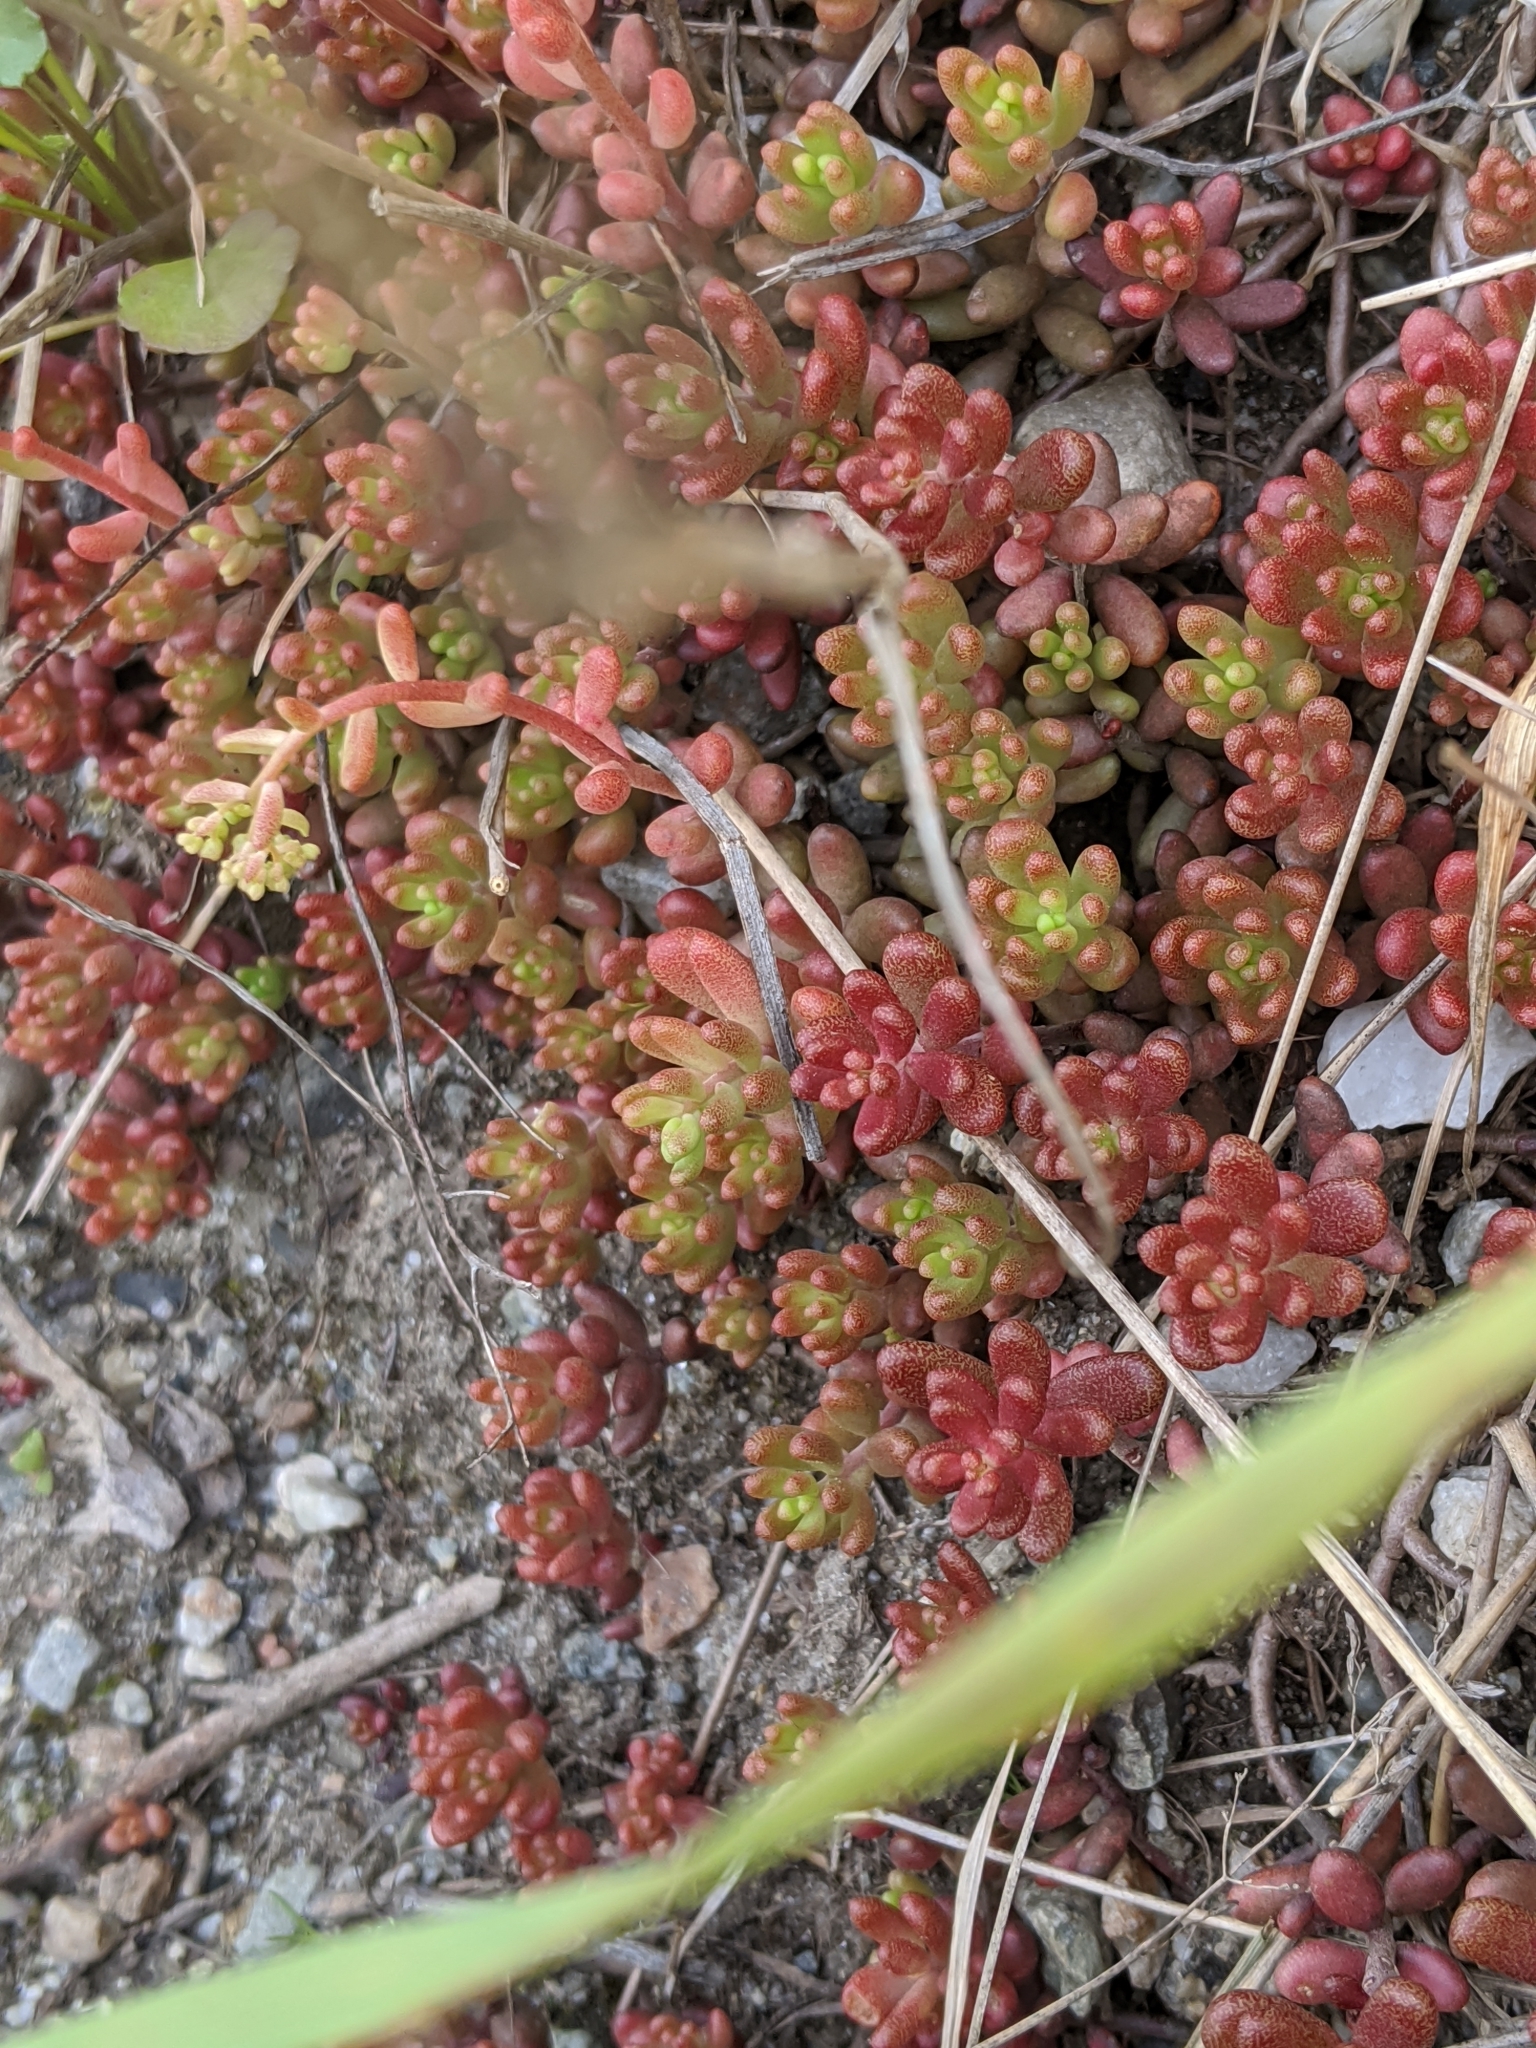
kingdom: Plantae
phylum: Tracheophyta
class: Magnoliopsida
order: Saxifragales
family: Crassulaceae
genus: Sedum
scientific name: Sedum album
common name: White stonecrop
